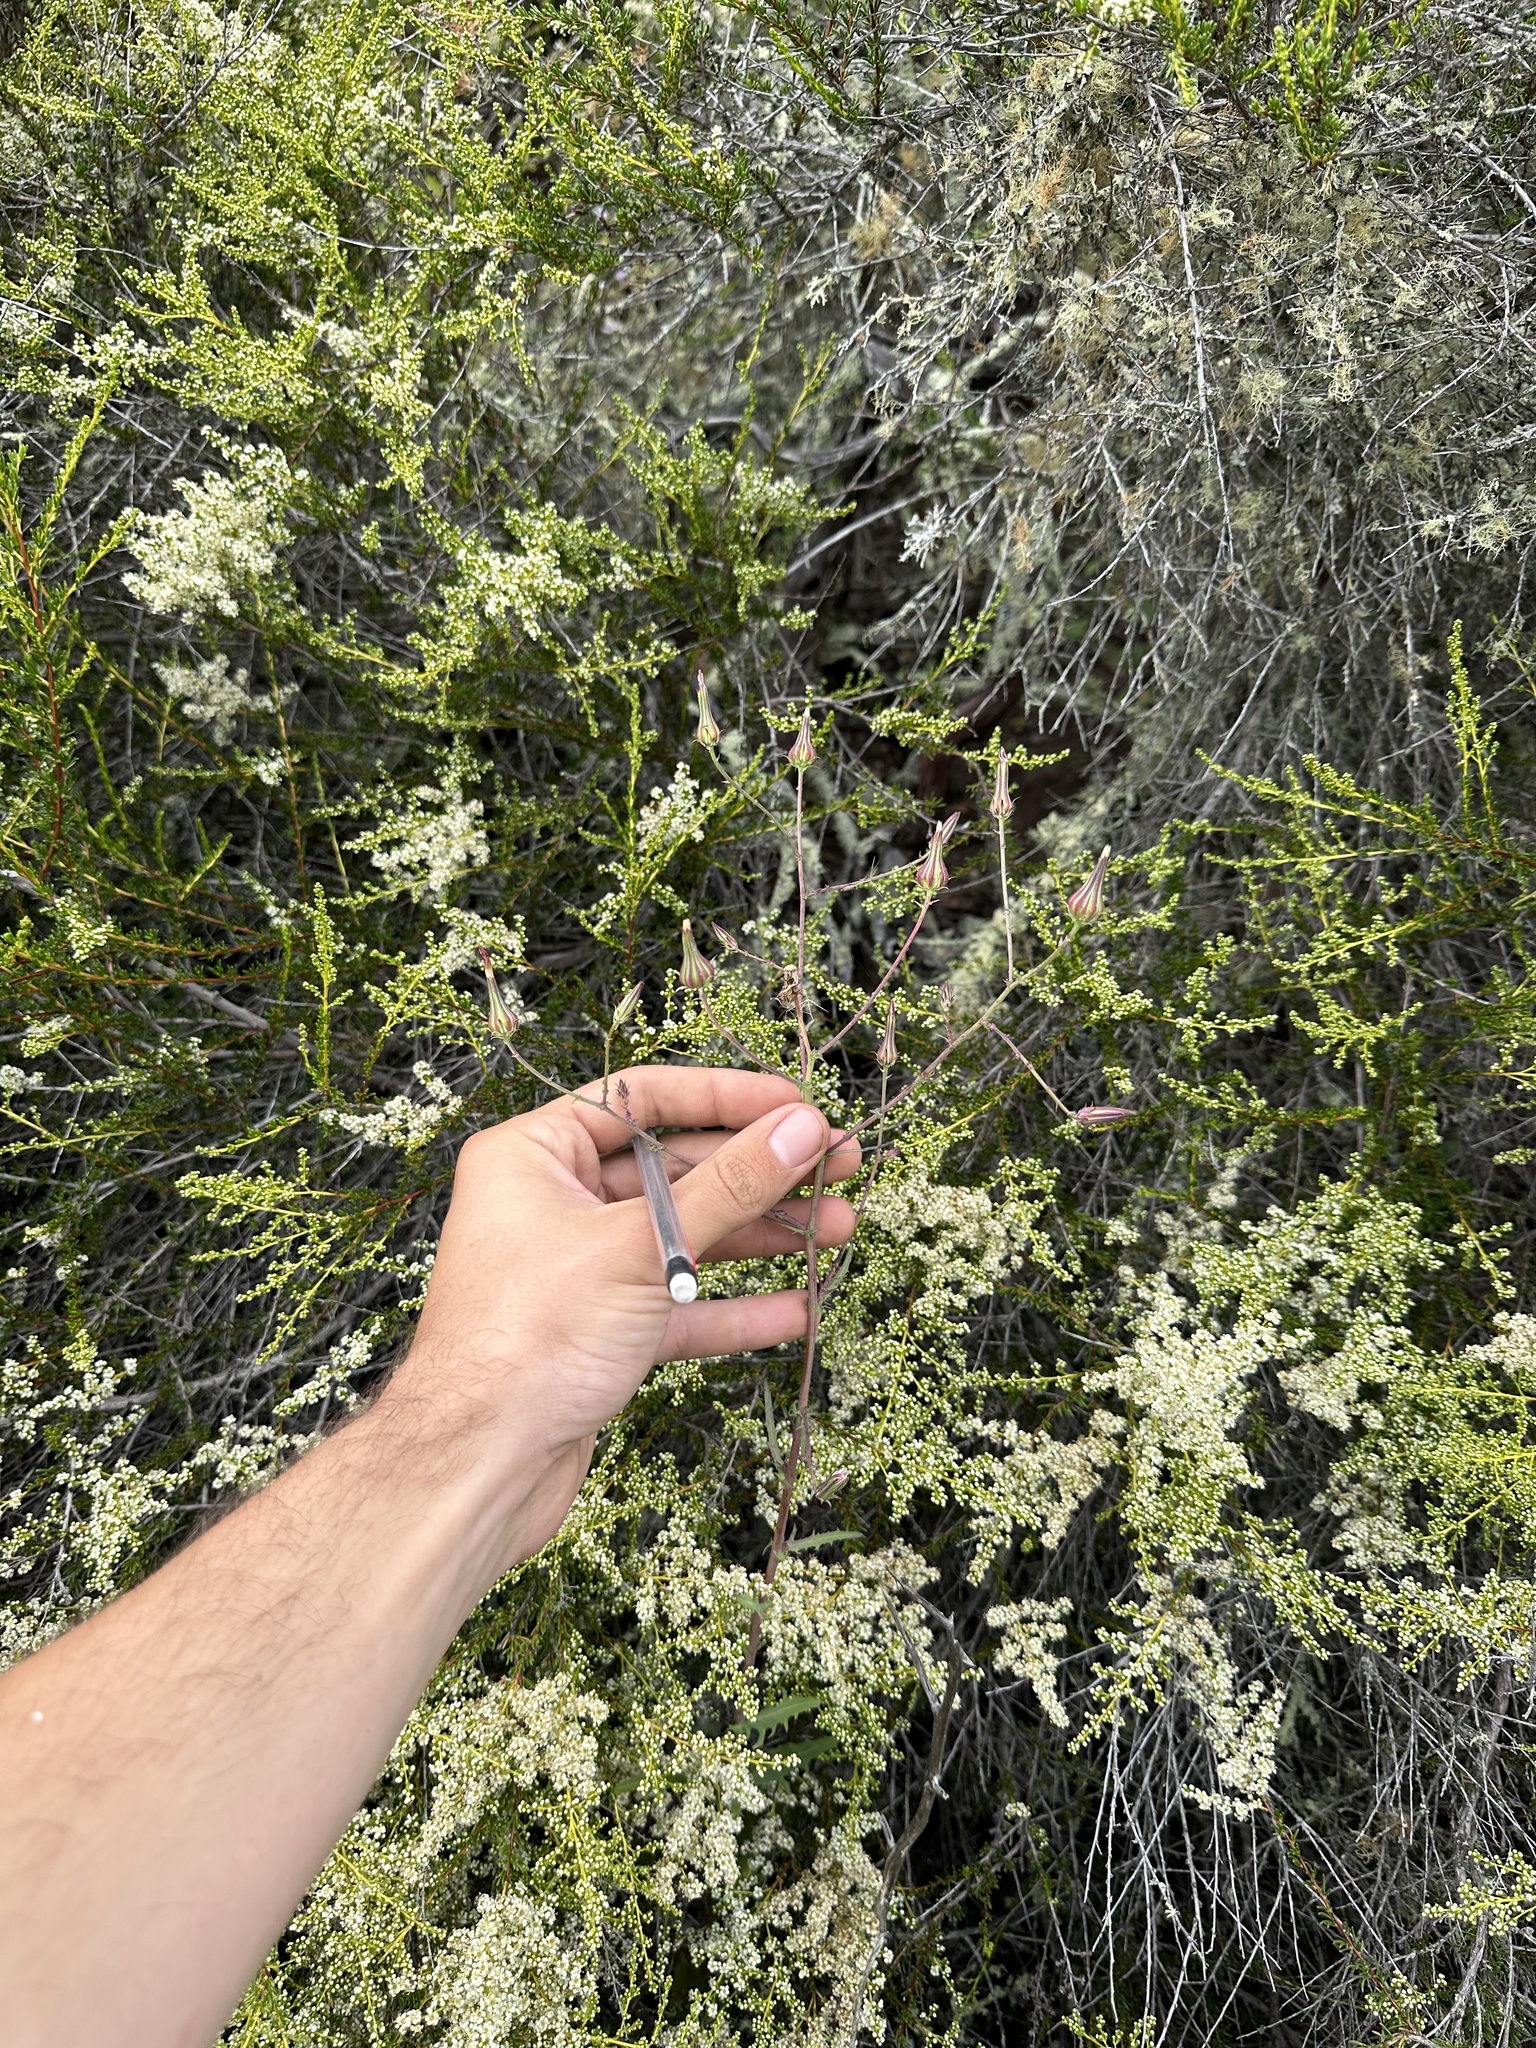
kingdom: Plantae
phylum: Tracheophyta
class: Magnoliopsida
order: Asterales
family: Asteraceae
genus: Rafinesquia
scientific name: Rafinesquia californica
